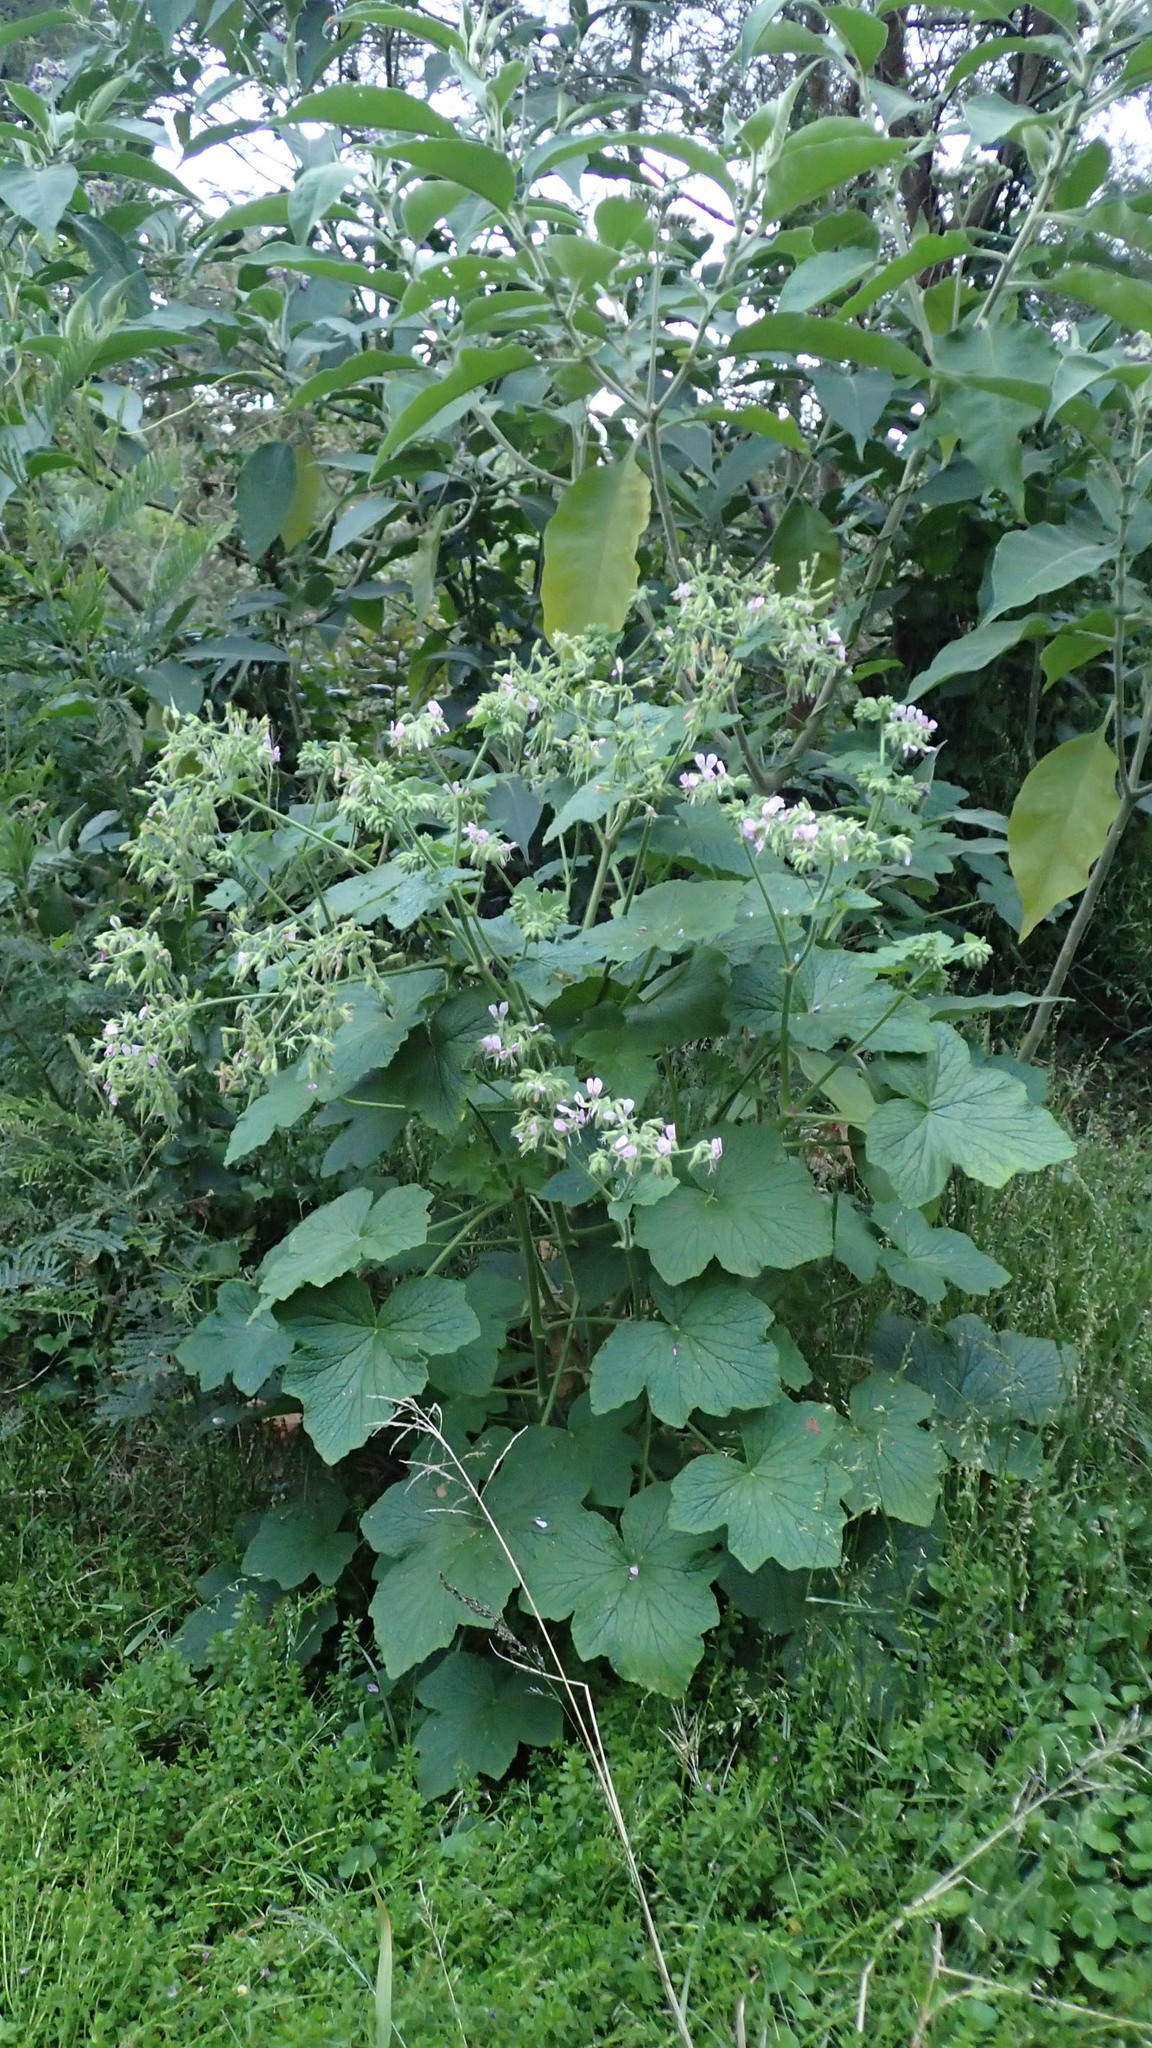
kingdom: Plantae
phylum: Tracheophyta
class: Magnoliopsida
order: Geraniales
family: Geraniaceae
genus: Pelargonium
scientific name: Pelargonium papilionaceum
